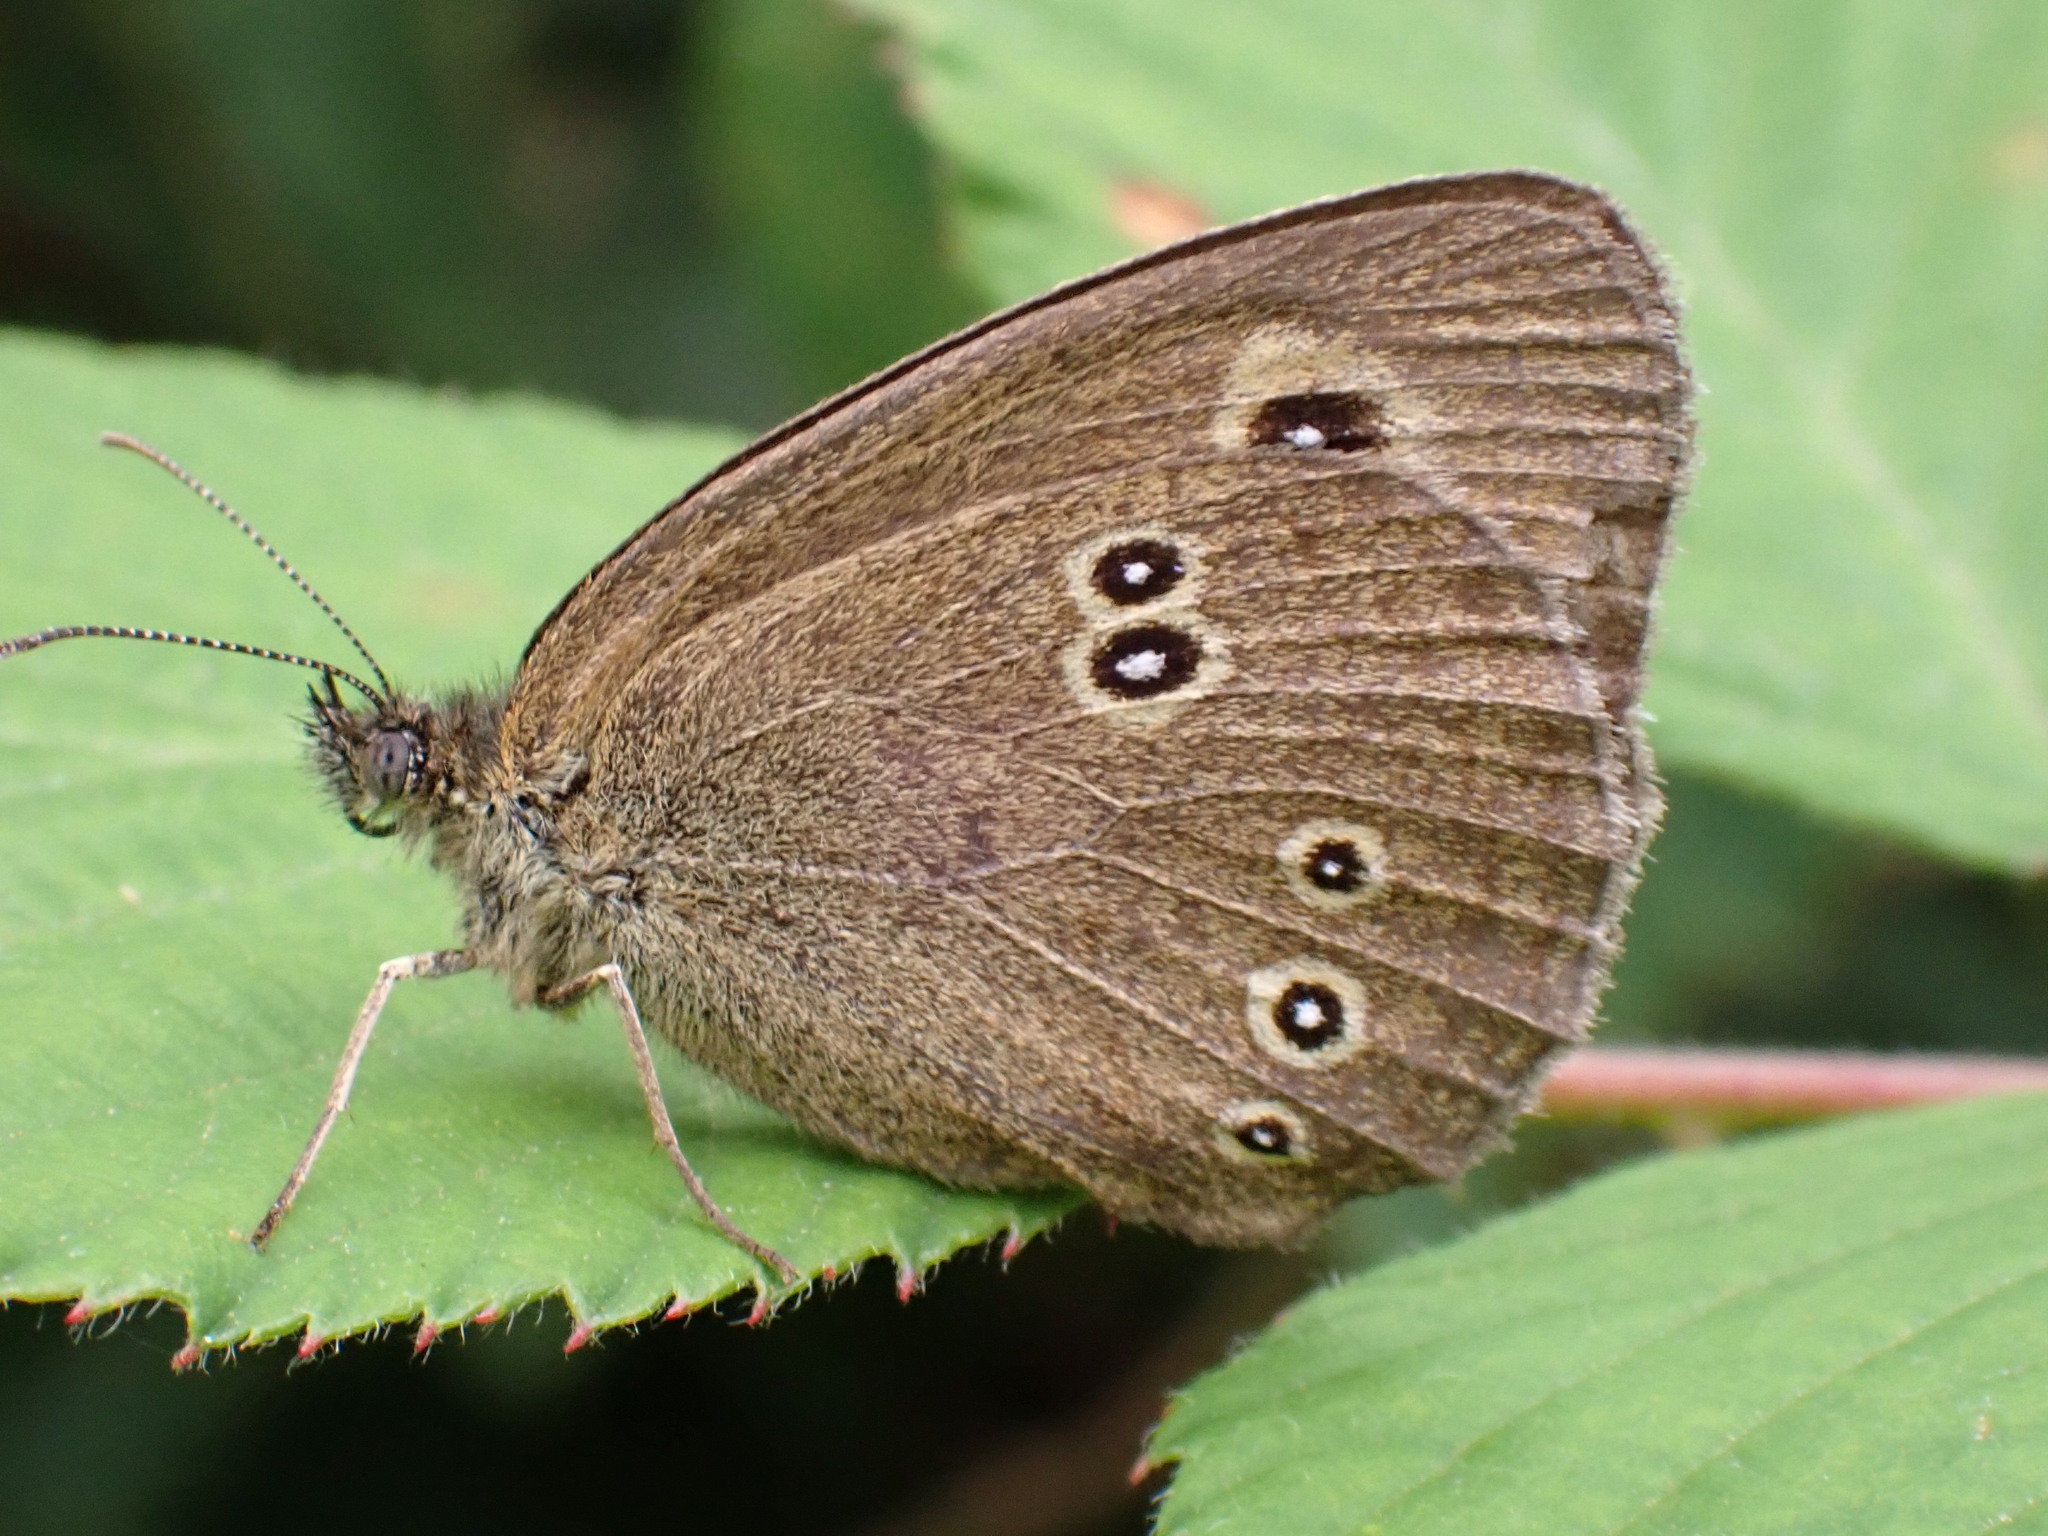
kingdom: Animalia
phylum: Arthropoda
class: Insecta
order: Lepidoptera
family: Nymphalidae
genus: Aphantopus
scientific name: Aphantopus hyperantus
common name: Ringlet
